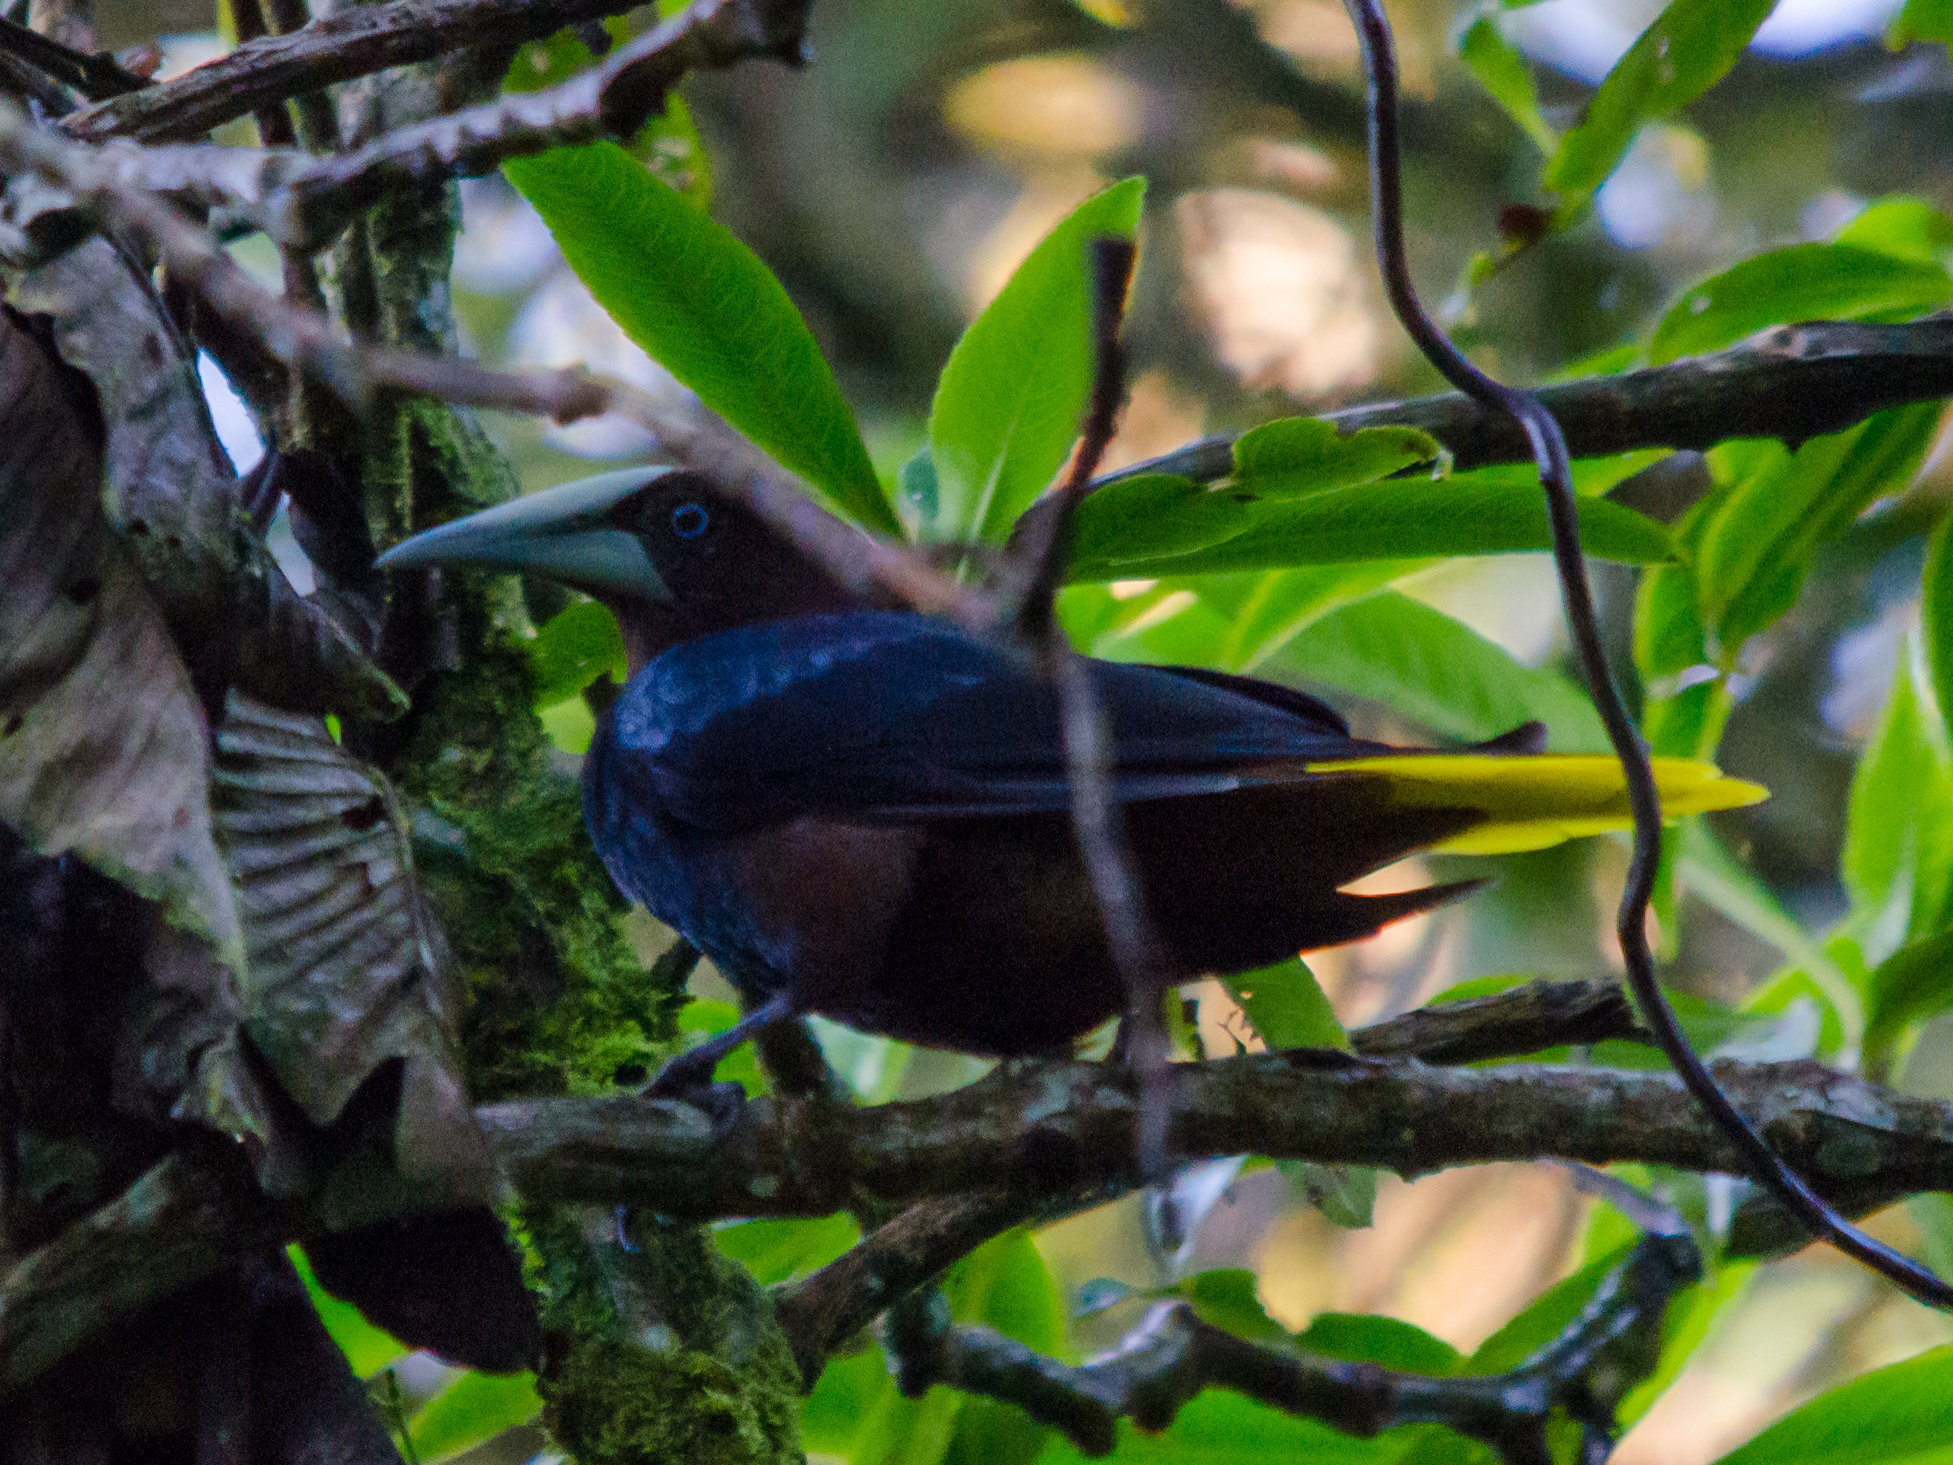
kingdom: Animalia
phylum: Chordata
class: Aves
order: Passeriformes
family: Icteridae
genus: Psarocolius
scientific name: Psarocolius wagleri
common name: Chestnut-headed oropendola
